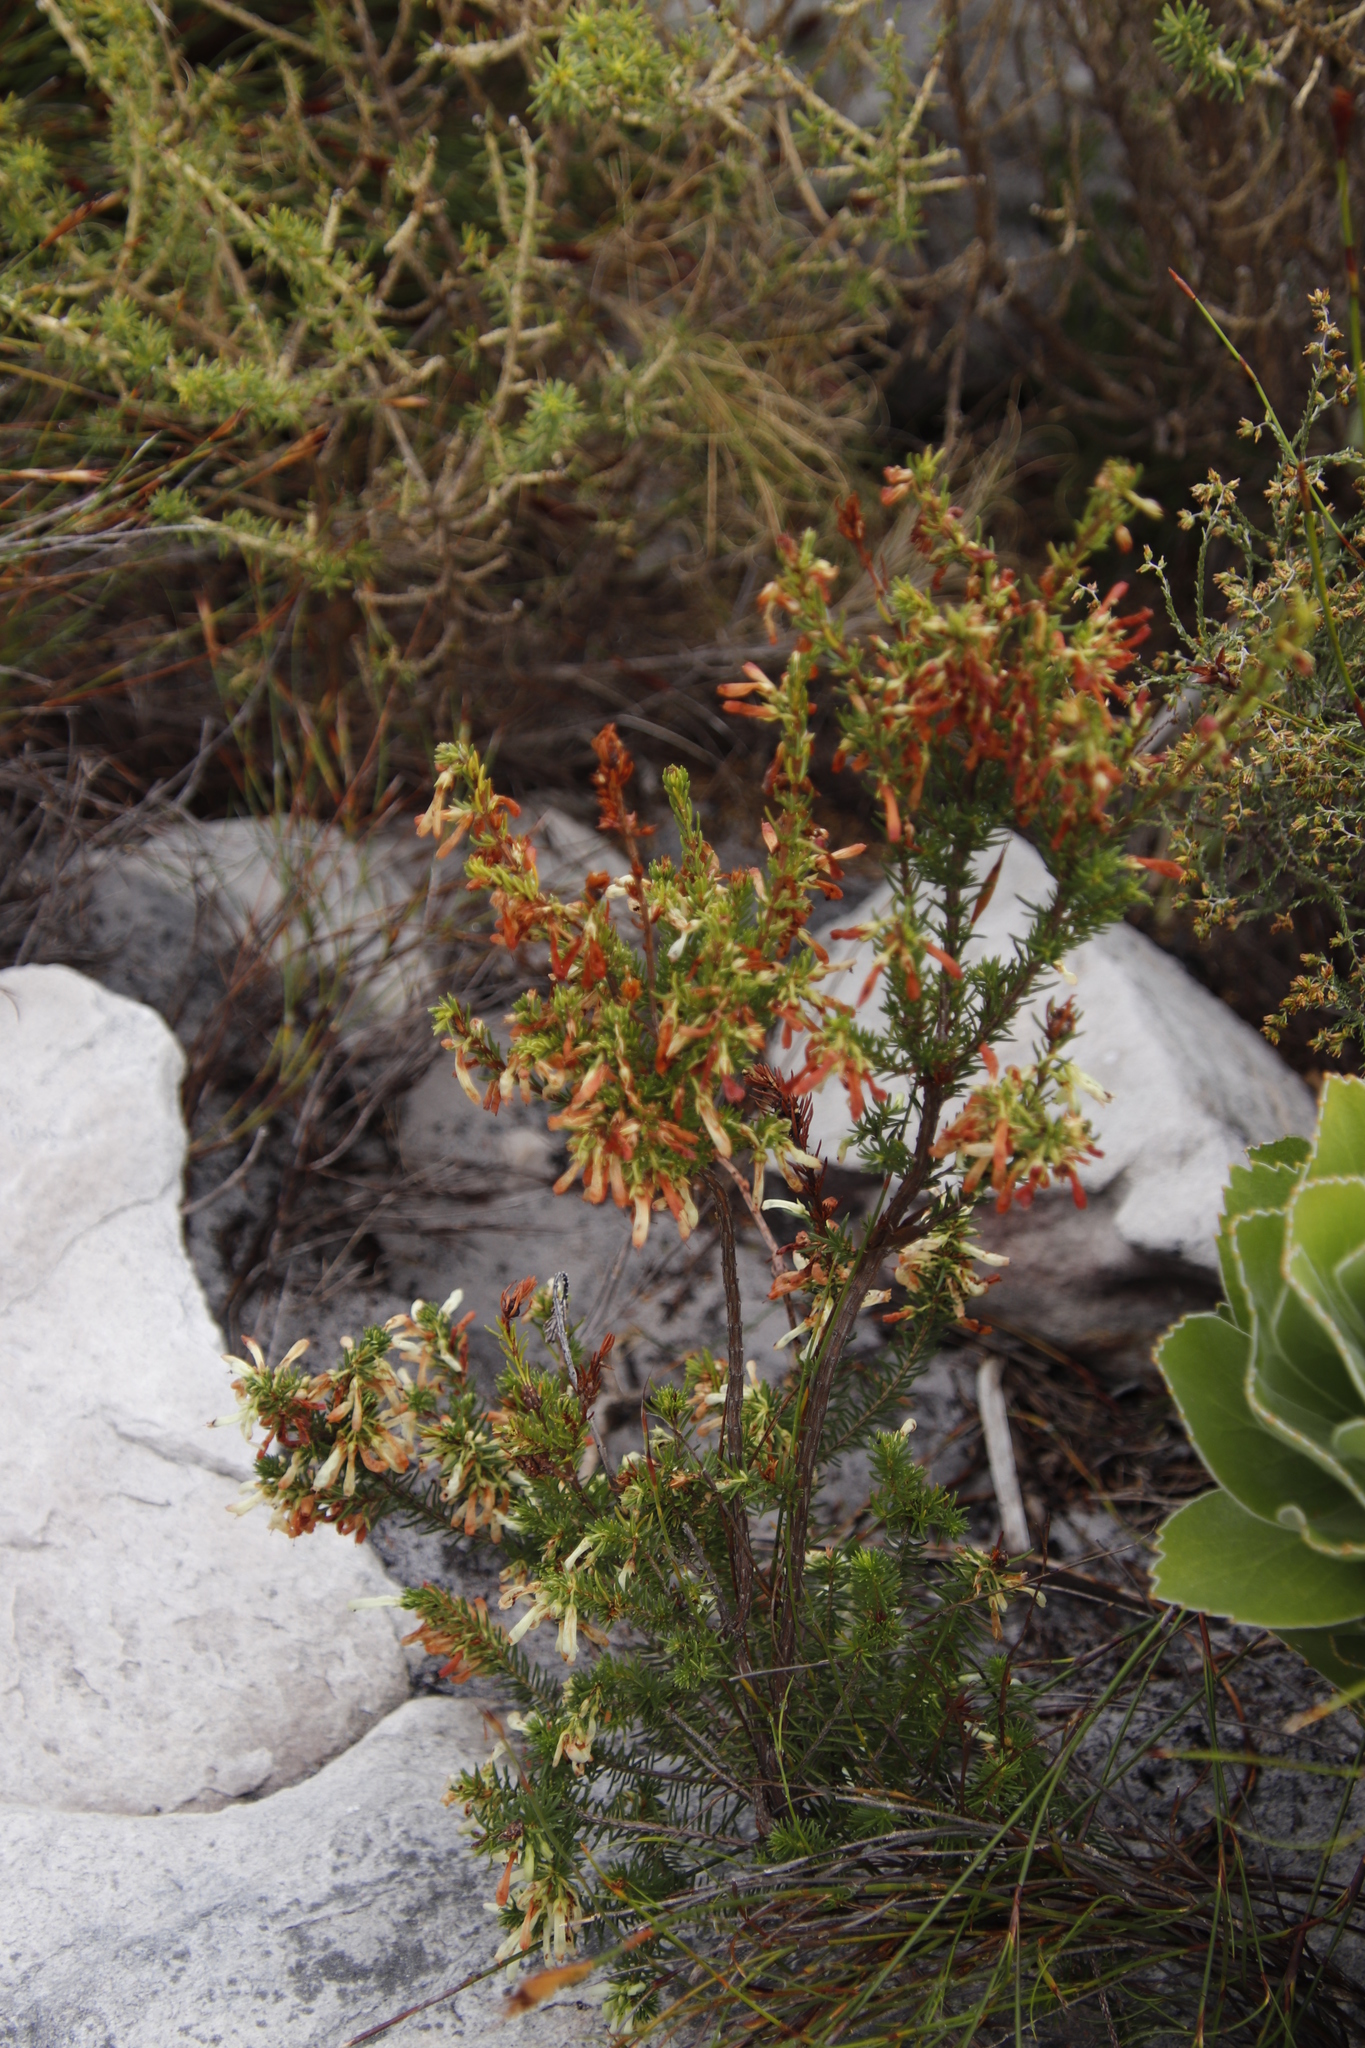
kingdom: Plantae
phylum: Tracheophyta
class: Magnoliopsida
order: Ericales
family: Ericaceae
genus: Erica
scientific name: Erica mammosa
